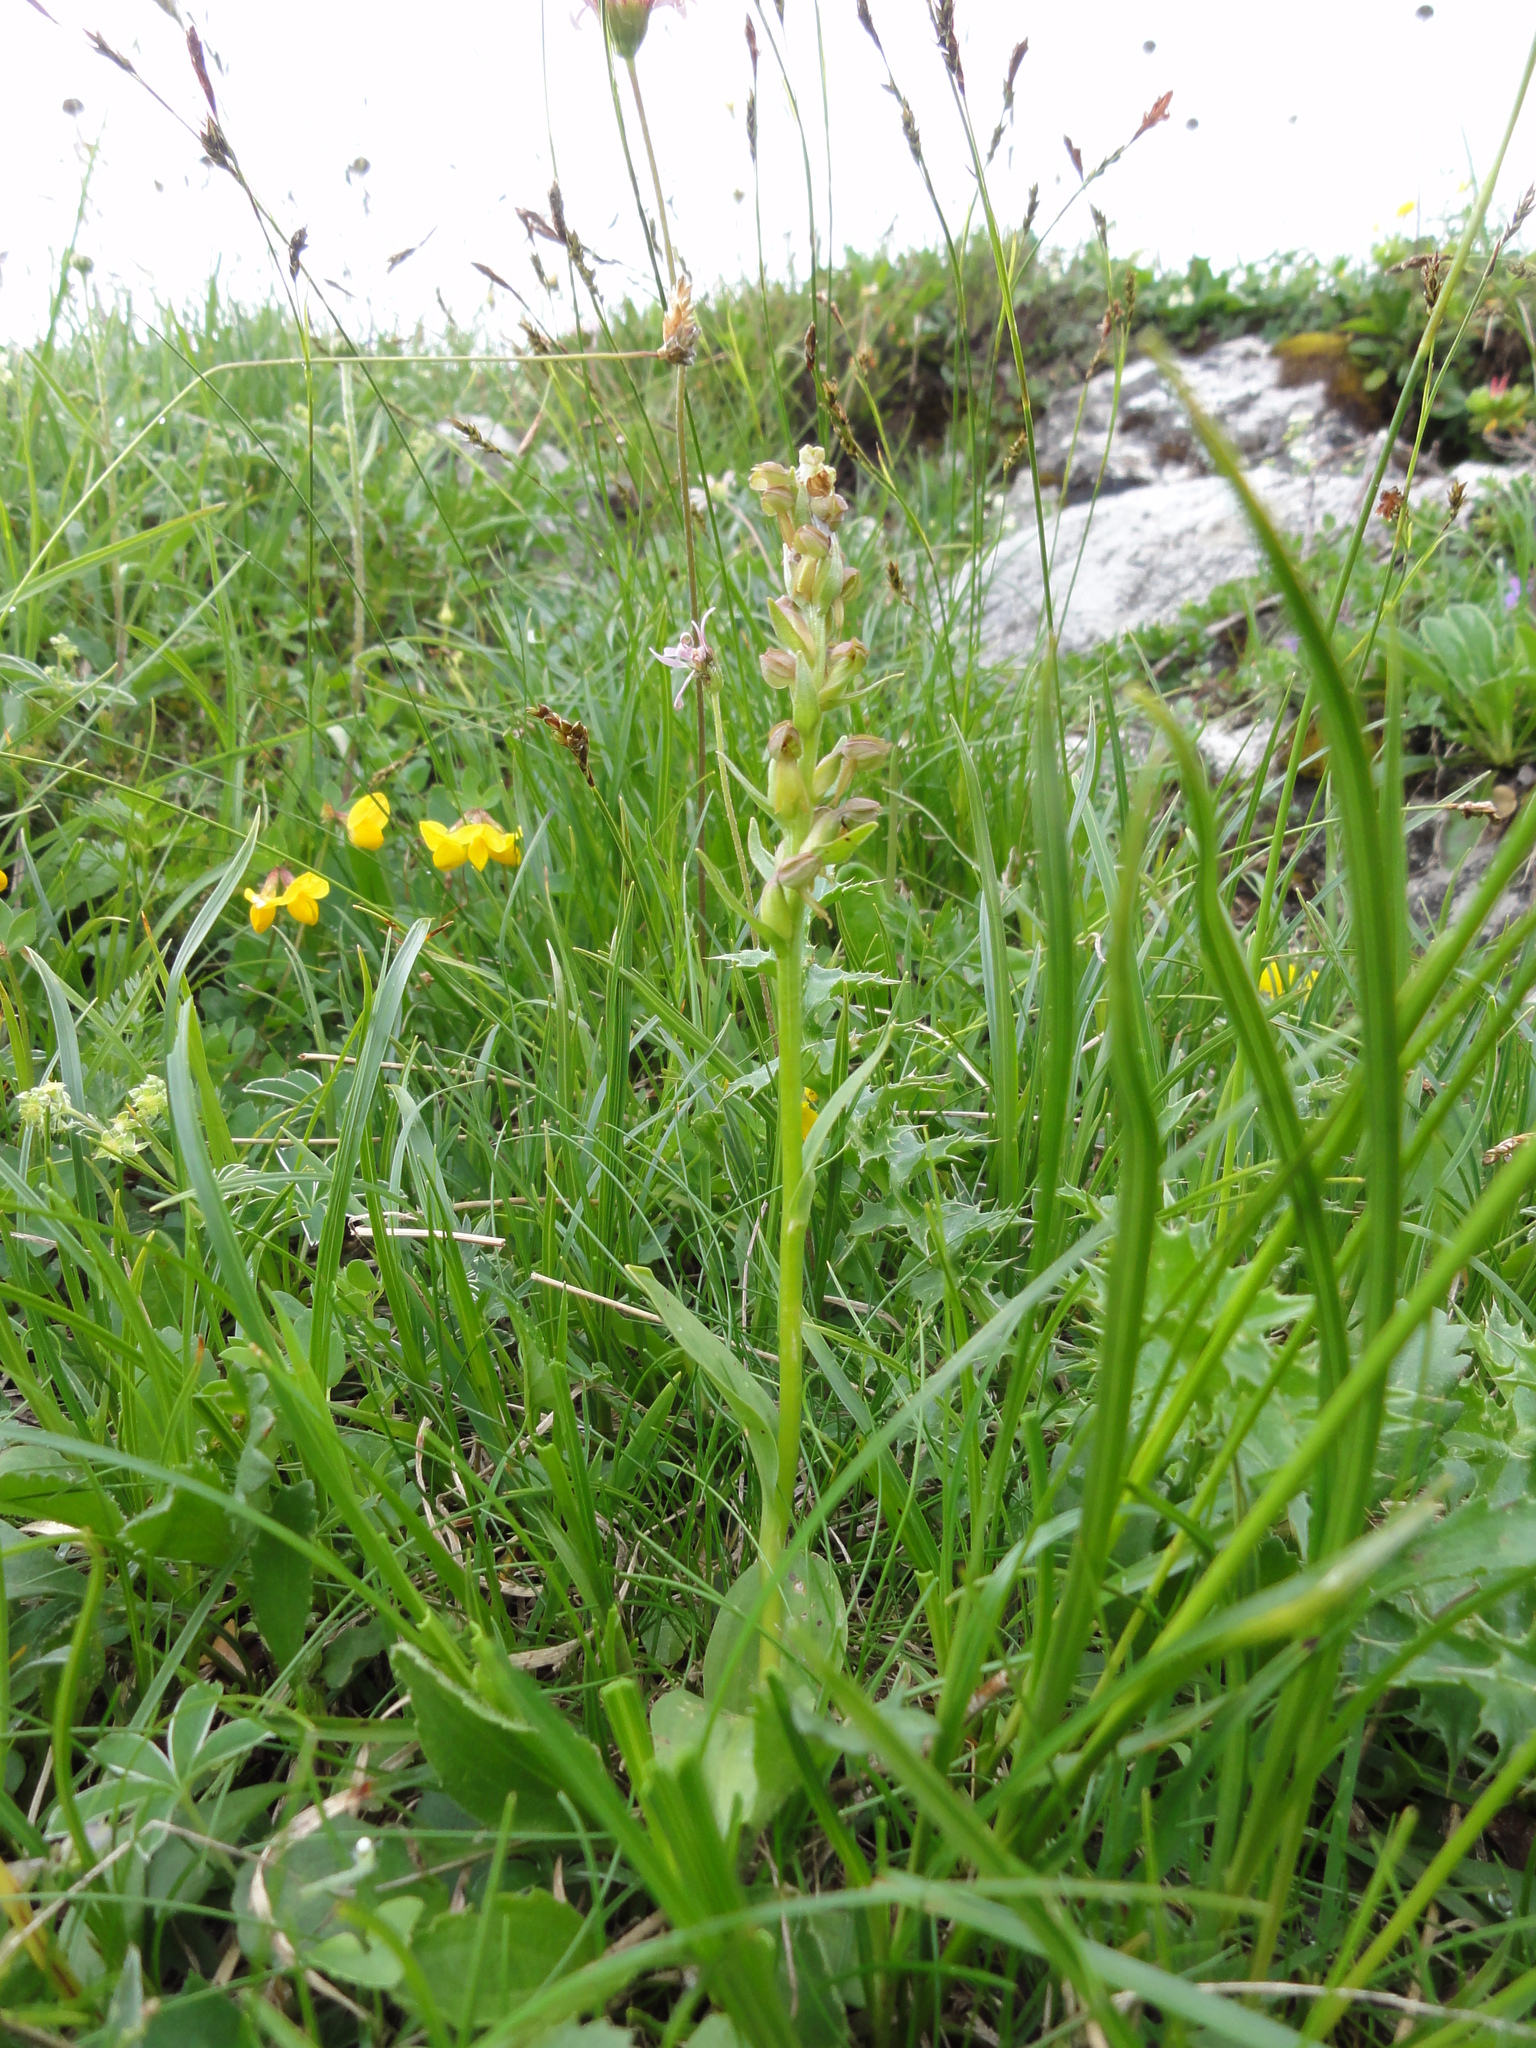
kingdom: Plantae
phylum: Tracheophyta
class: Liliopsida
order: Asparagales
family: Orchidaceae
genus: Dactylorhiza
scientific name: Dactylorhiza viridis
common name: Longbract frog orchid
